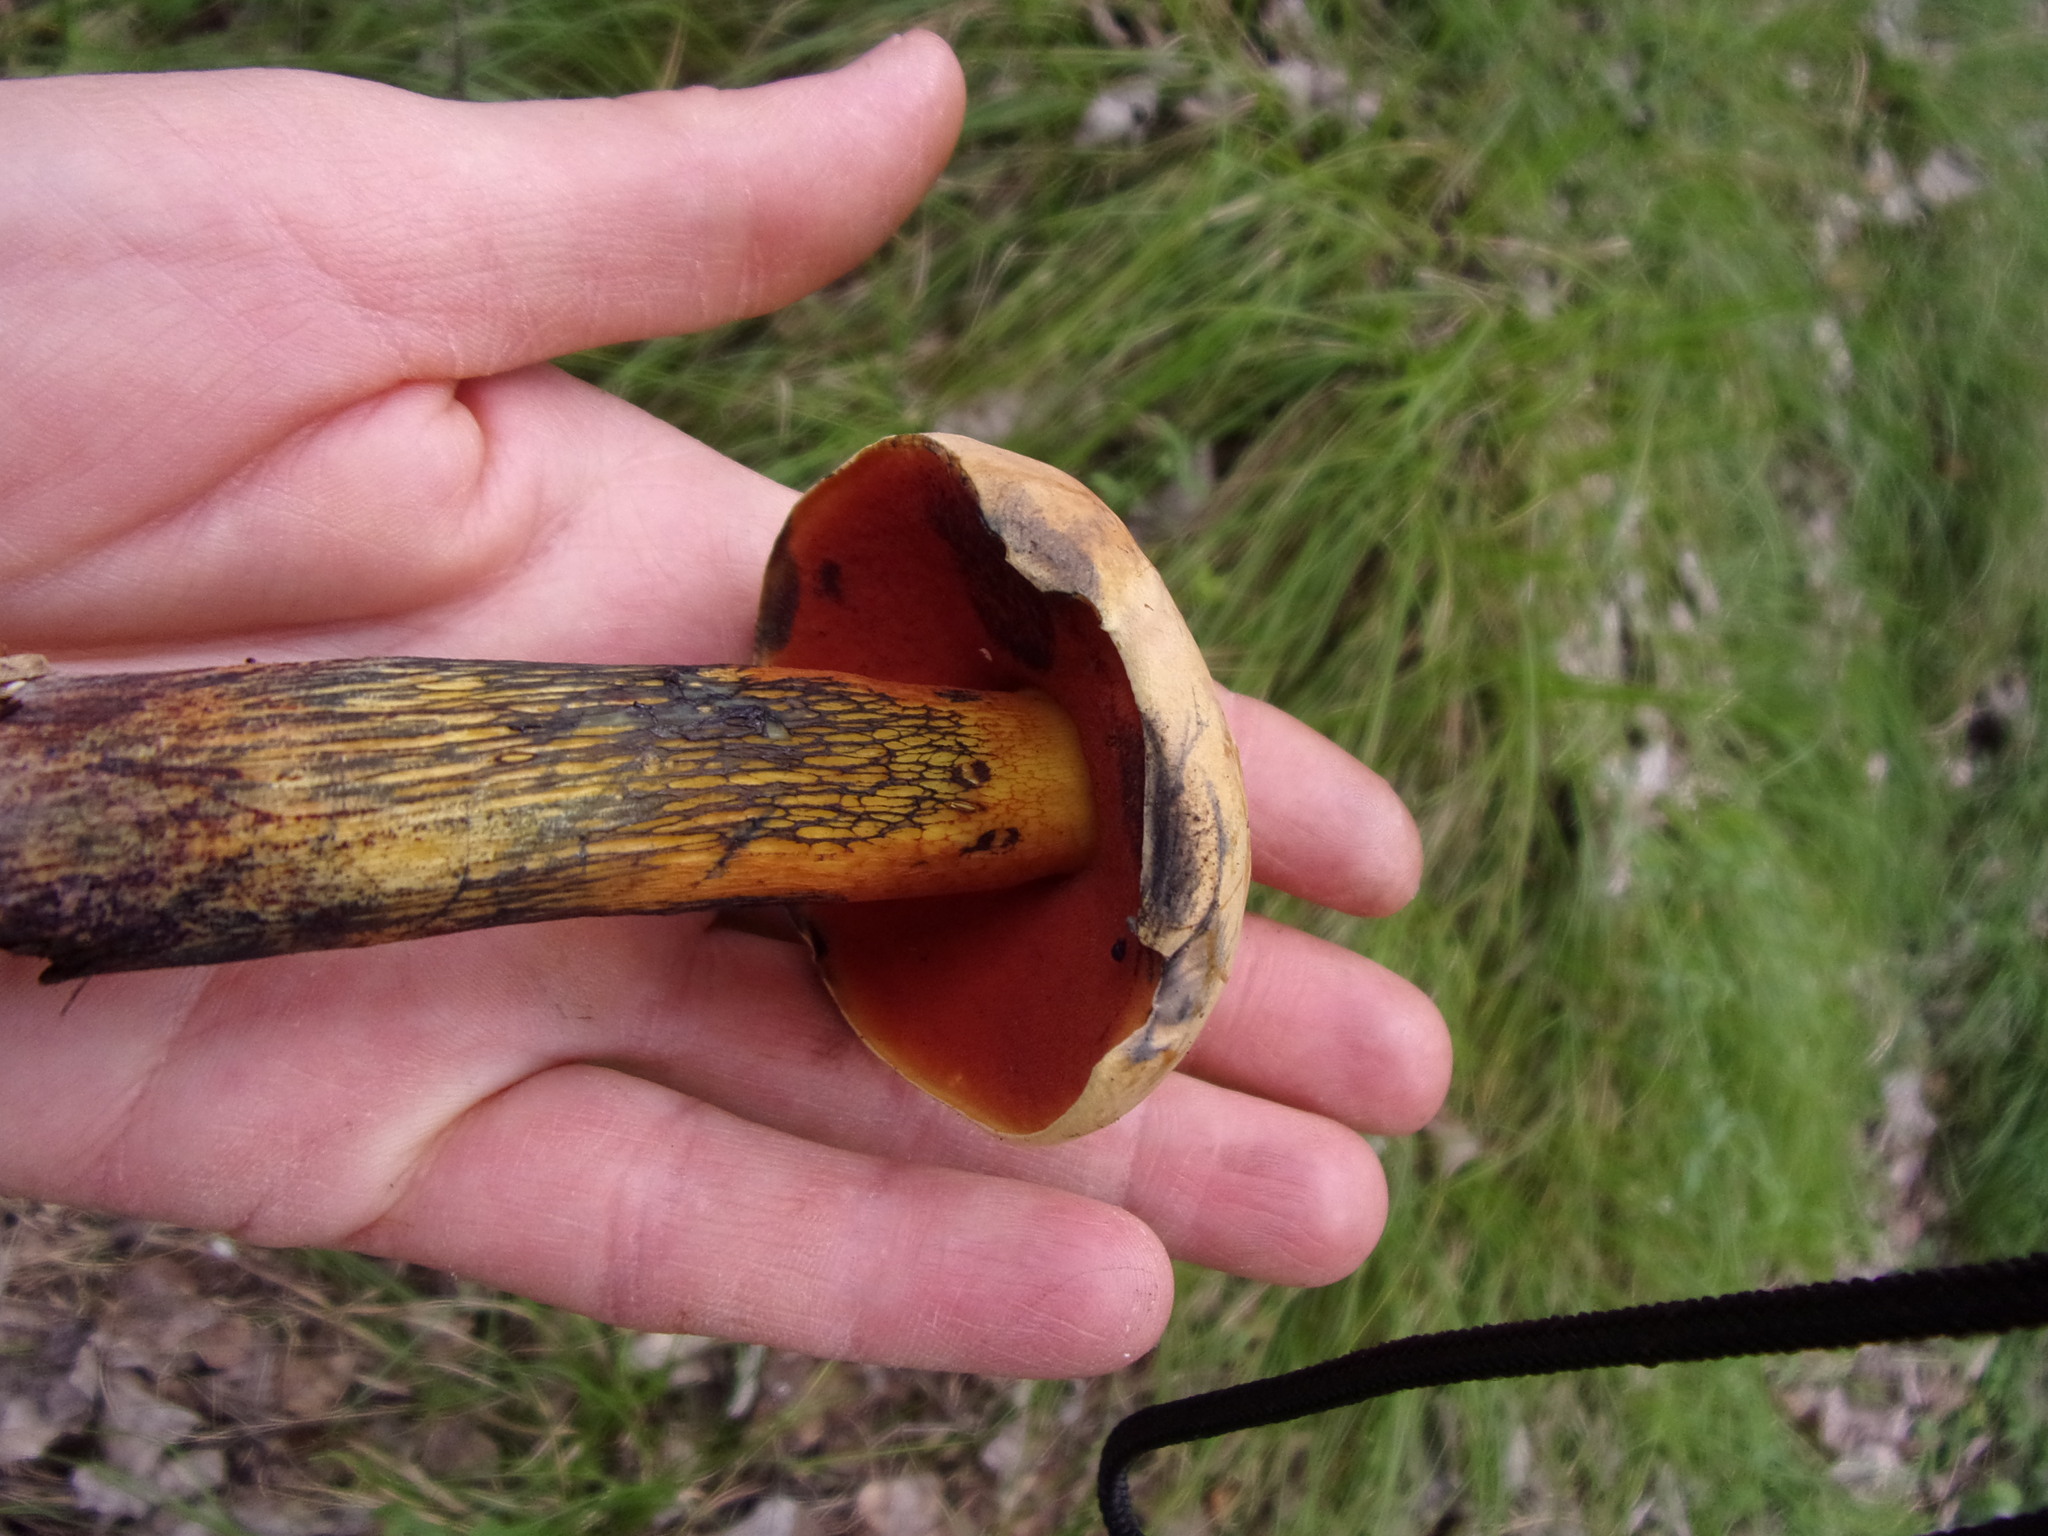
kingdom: Fungi
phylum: Basidiomycota
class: Agaricomycetes
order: Boletales
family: Boletaceae
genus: Suillellus
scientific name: Suillellus luridus
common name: Lurid bolete
